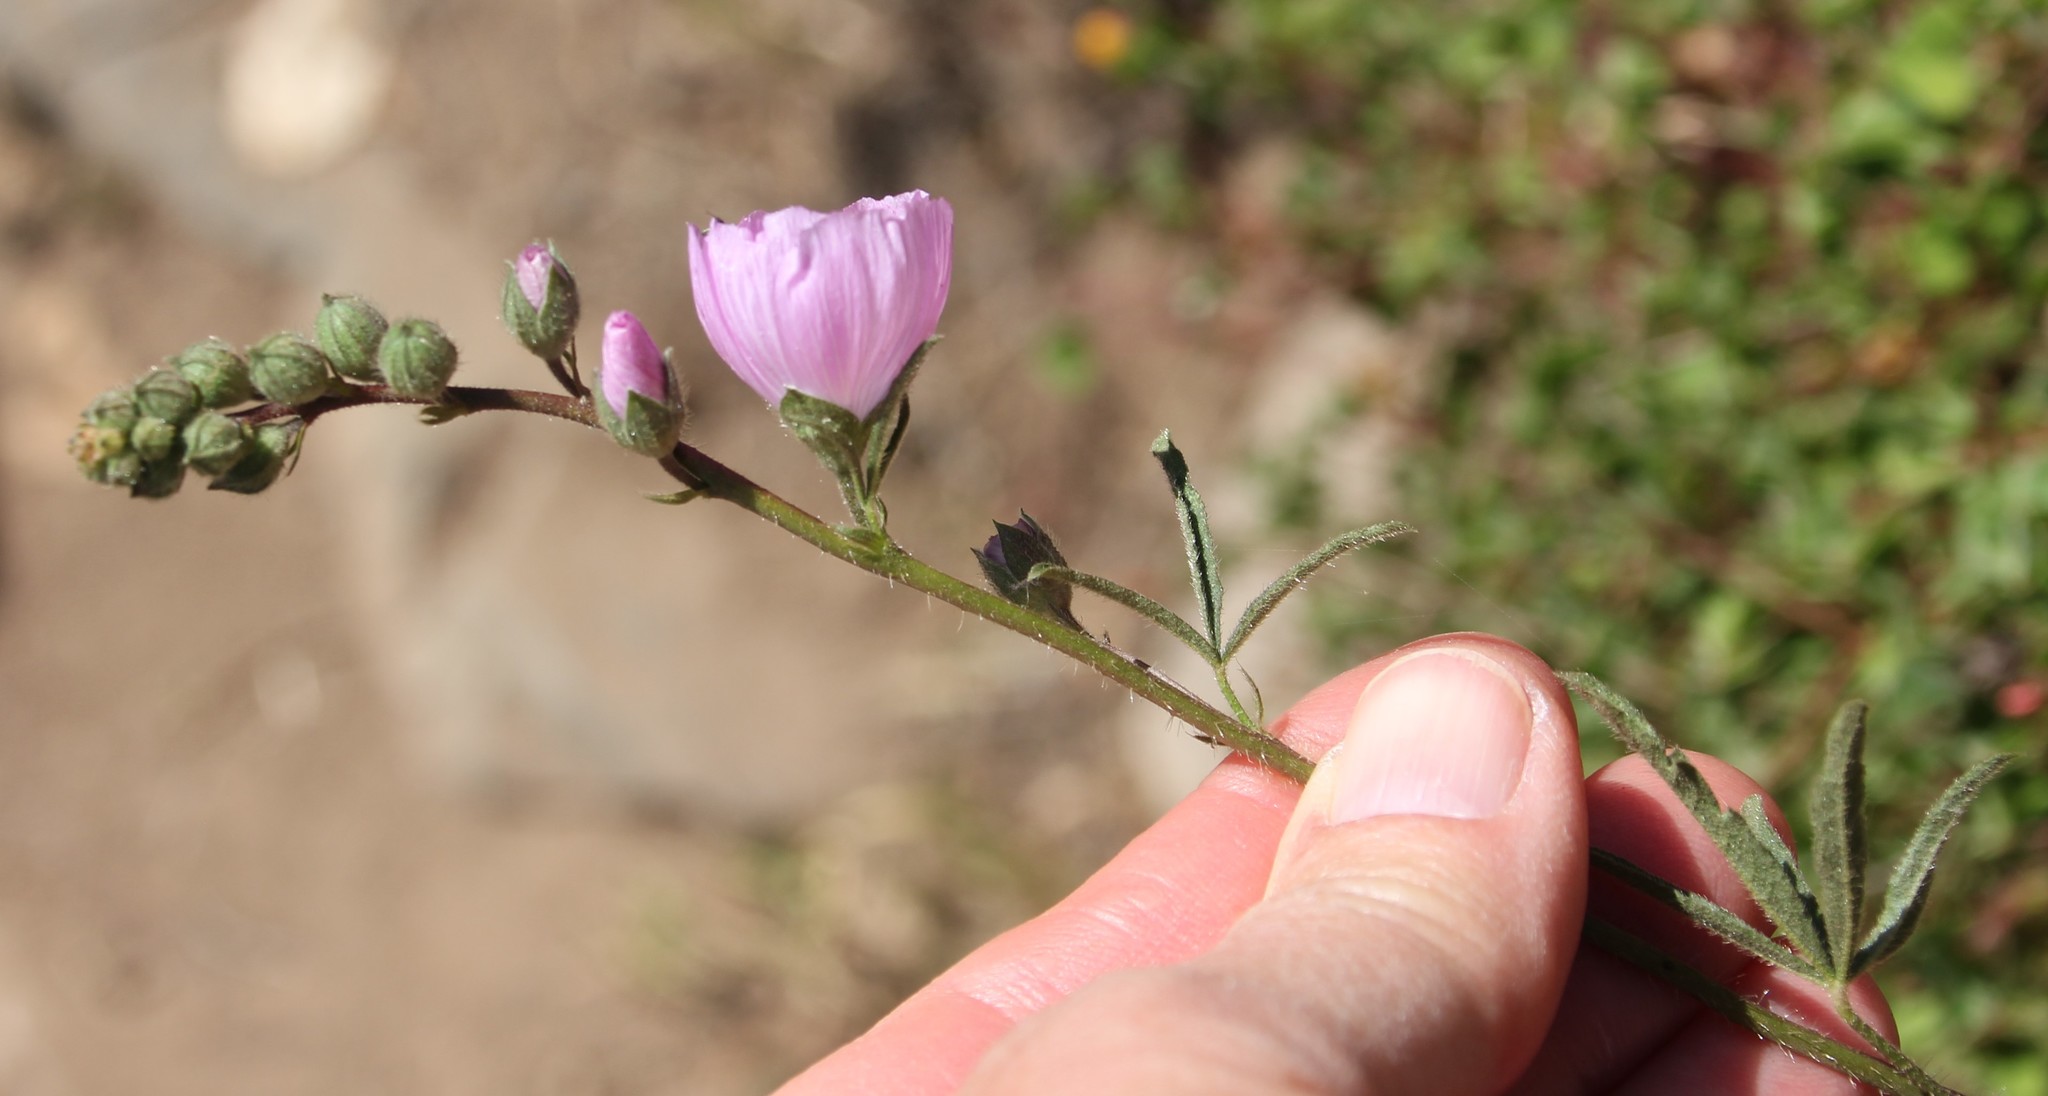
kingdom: Plantae
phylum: Tracheophyta
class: Magnoliopsida
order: Malvales
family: Malvaceae
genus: Sidalcea
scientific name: Sidalcea sparsifolia
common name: Southern checkerbloom
